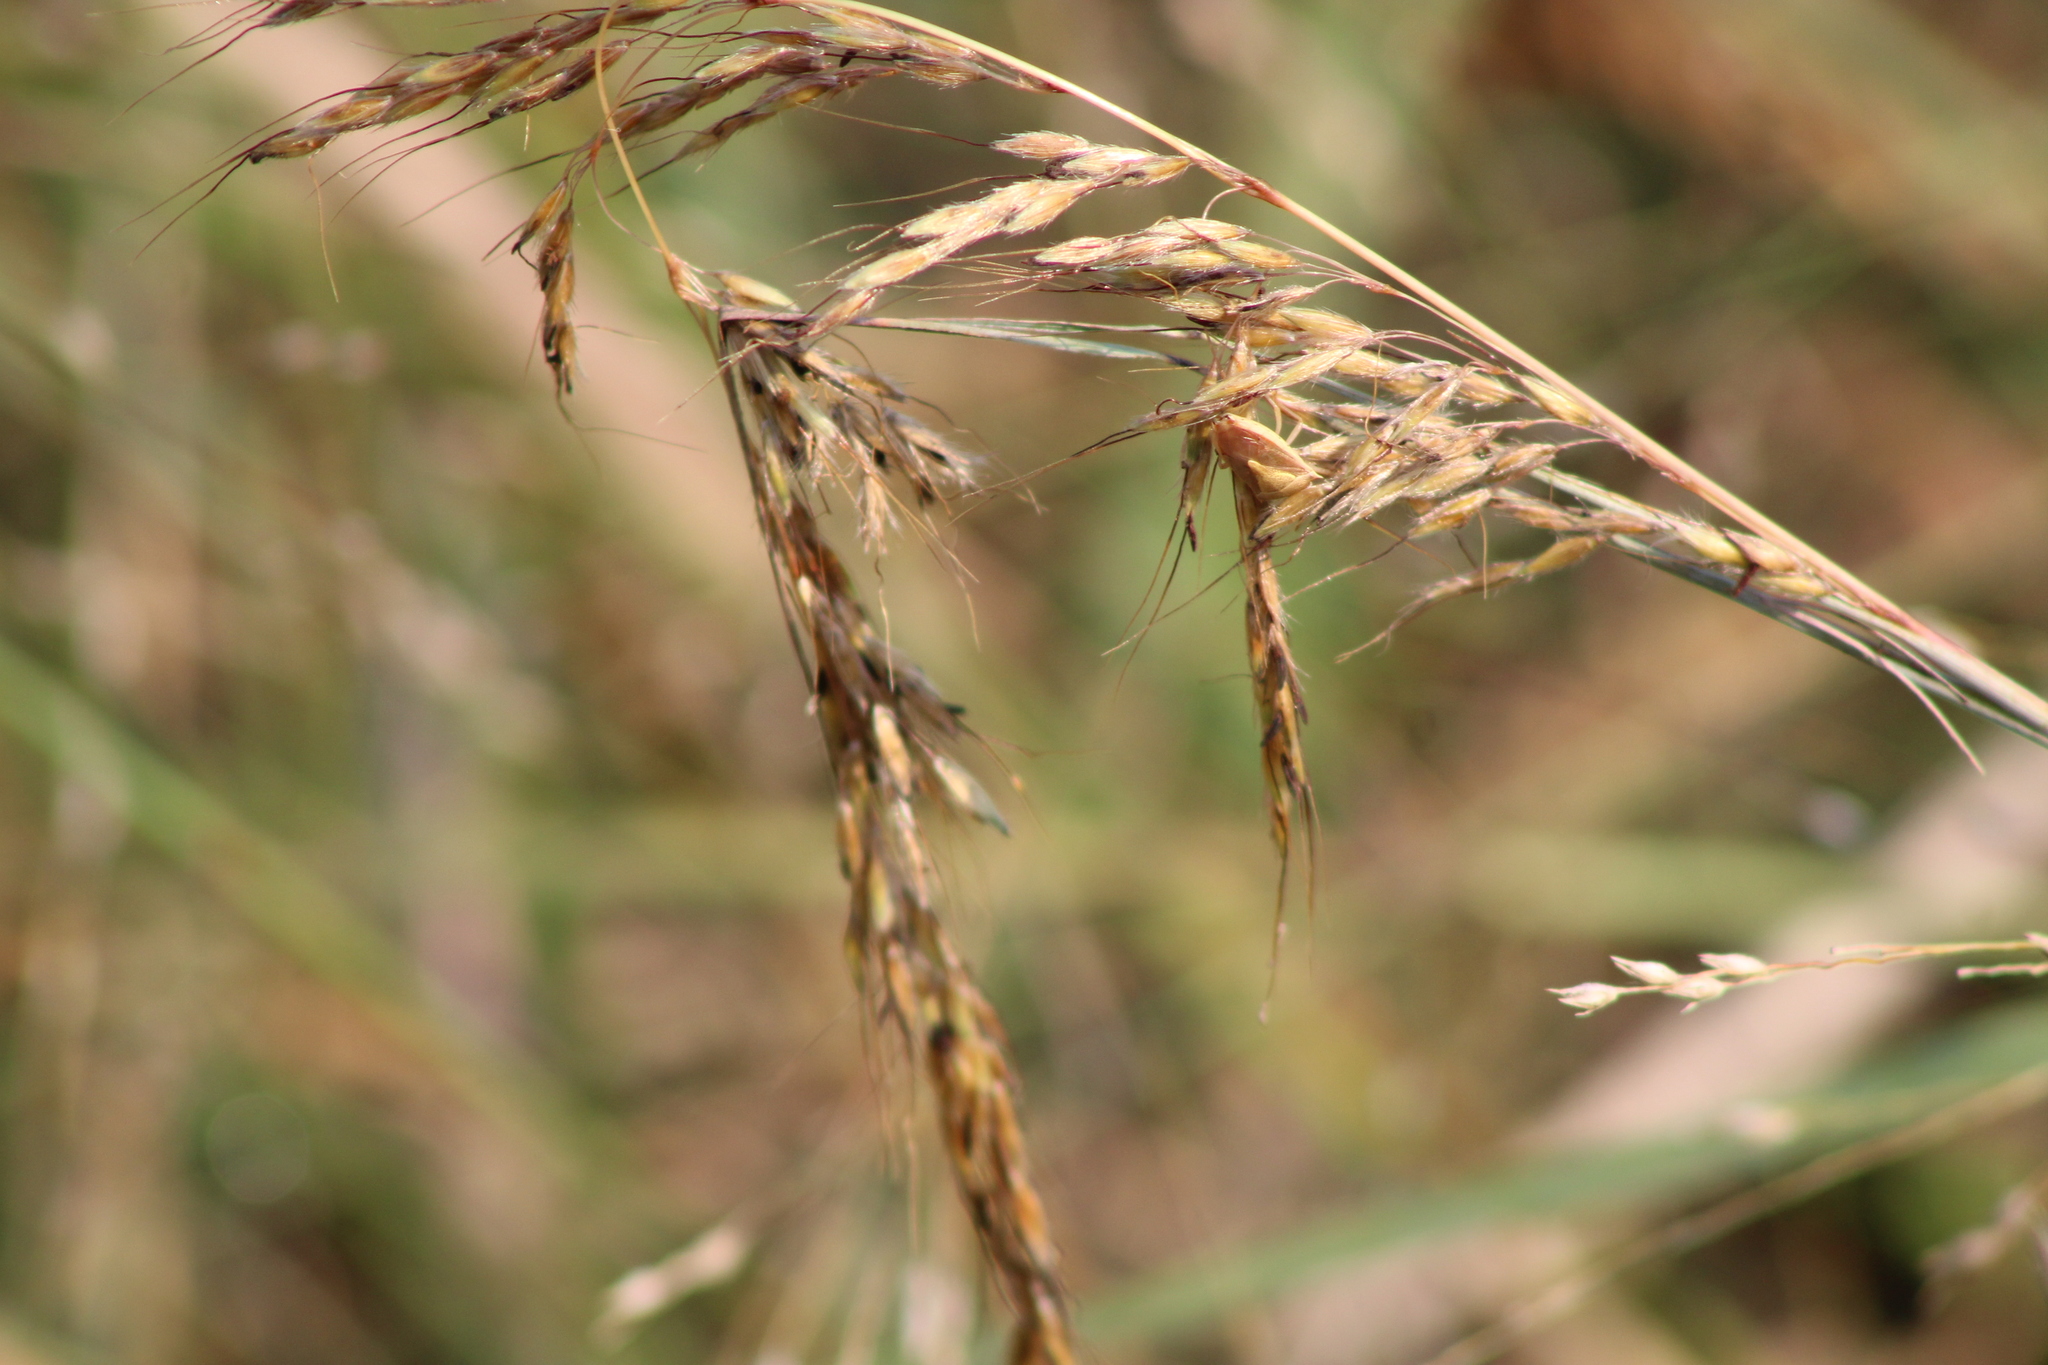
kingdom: Plantae
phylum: Tracheophyta
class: Liliopsida
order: Poales
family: Poaceae
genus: Sorghastrum
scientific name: Sorghastrum nutans
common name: Indian grass
